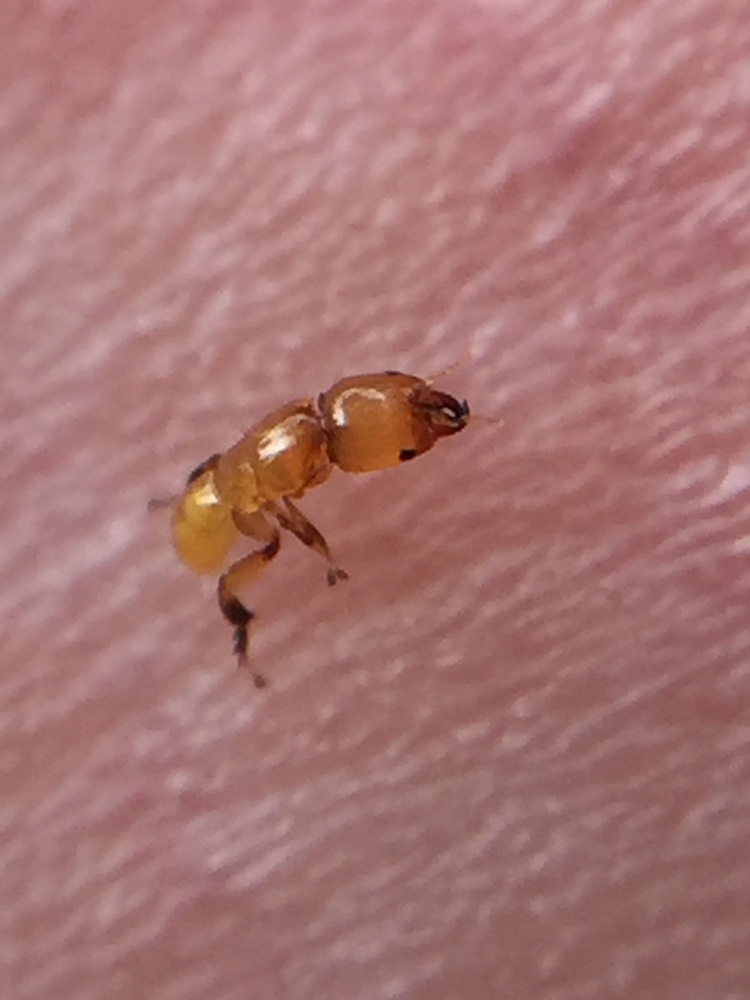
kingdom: Animalia
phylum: Arthropoda
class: Insecta
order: Hymenoptera
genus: Sycoscapter
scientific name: Sycoscapter
